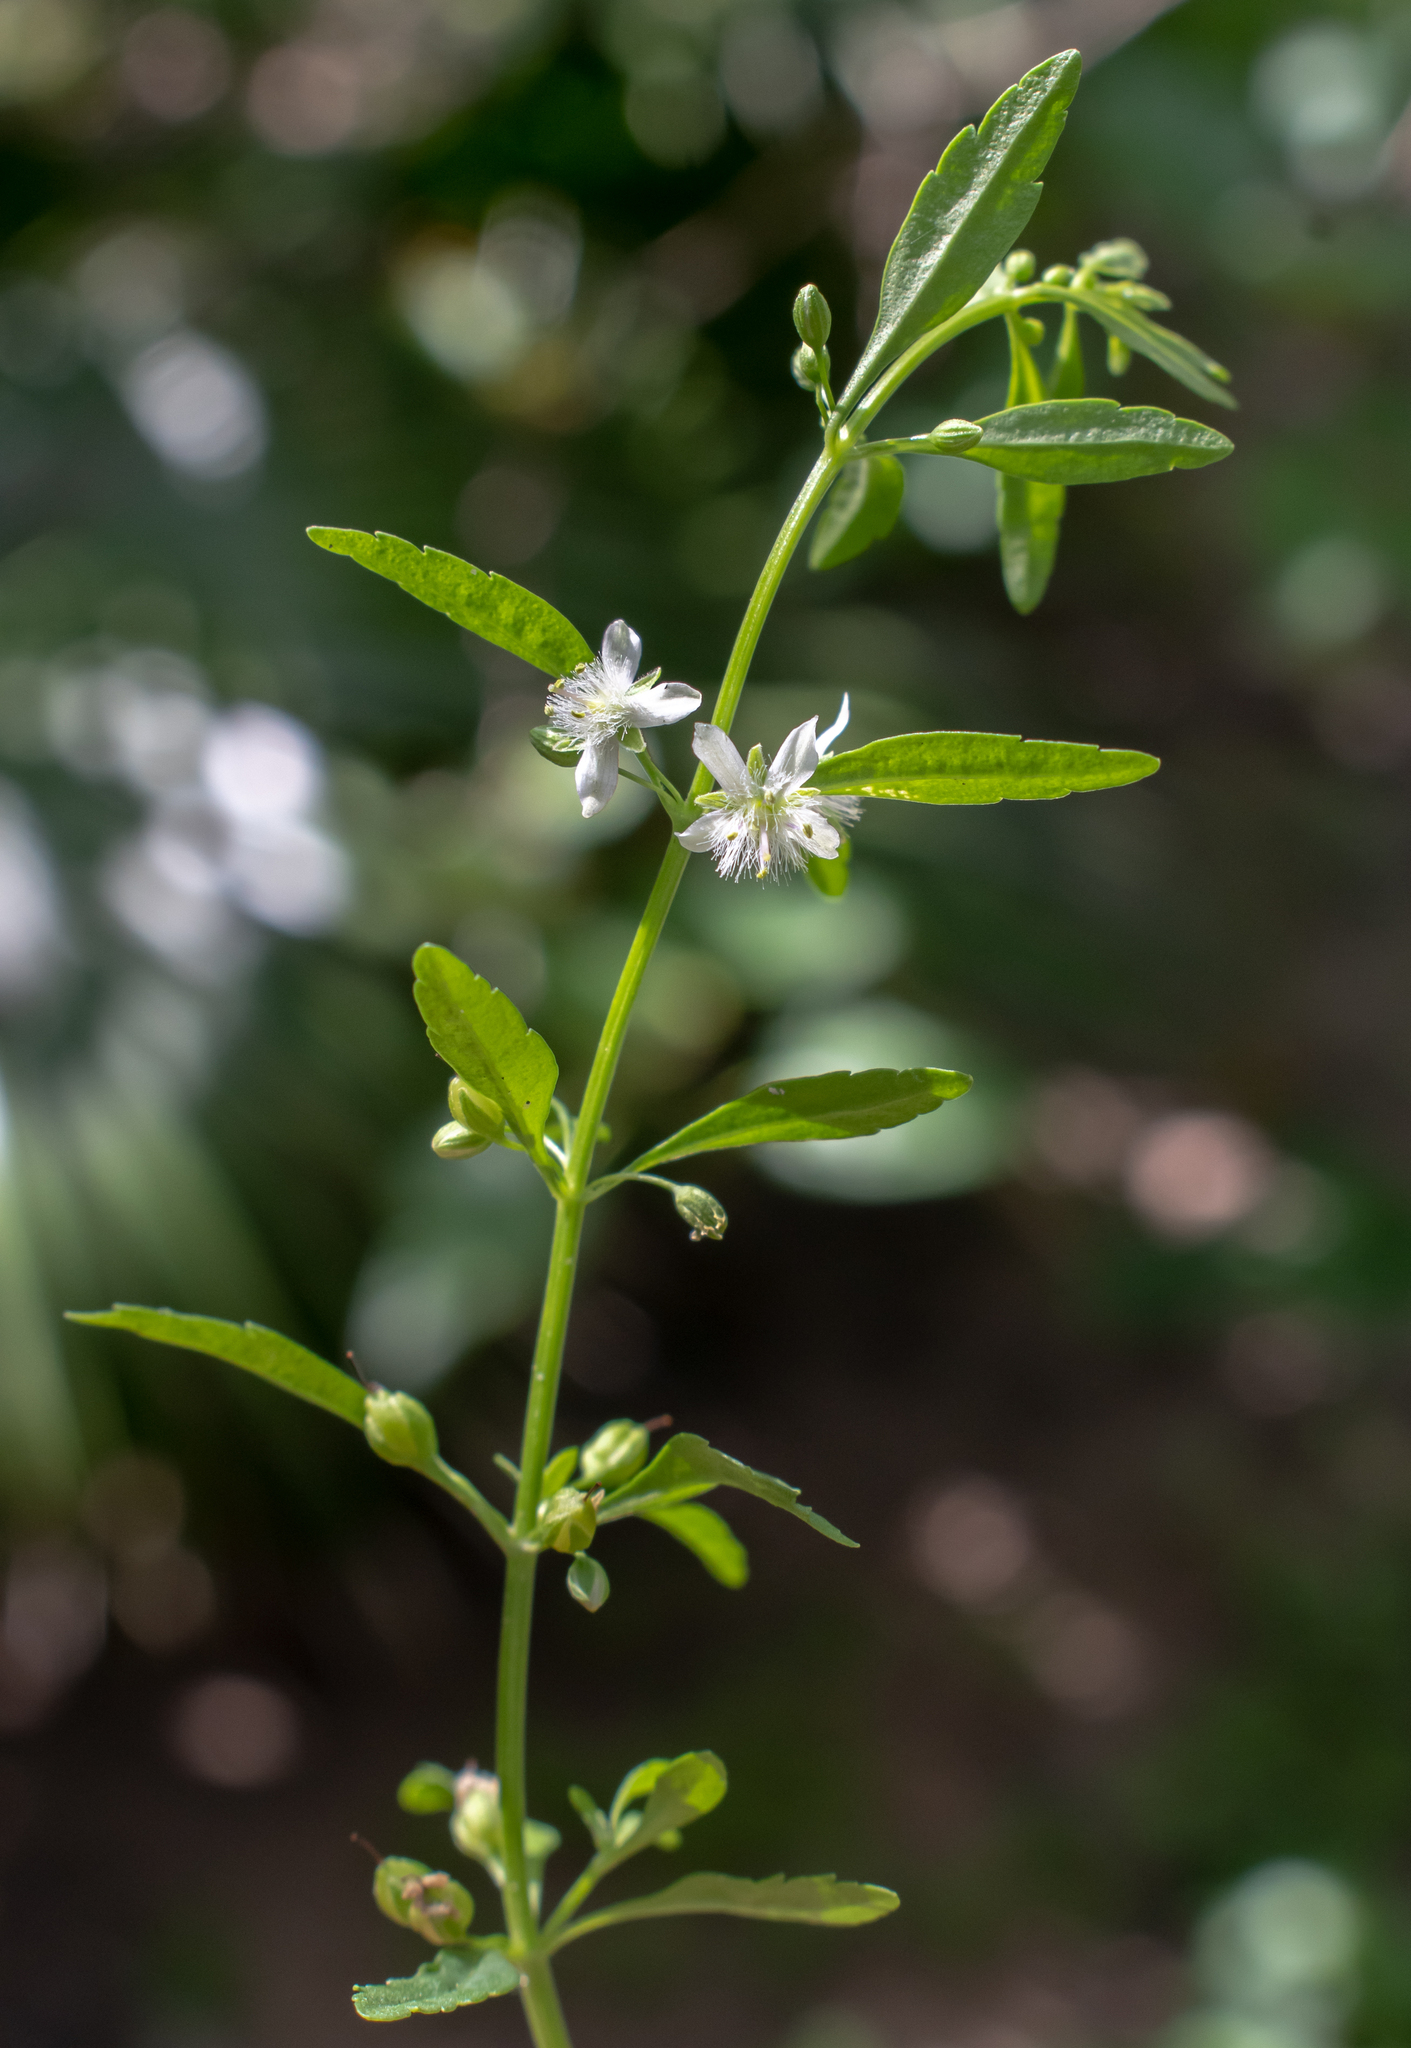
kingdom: Plantae
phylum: Tracheophyta
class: Magnoliopsida
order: Lamiales
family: Plantaginaceae
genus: Scoparia
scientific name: Scoparia dulcis
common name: Scoparia-weed
